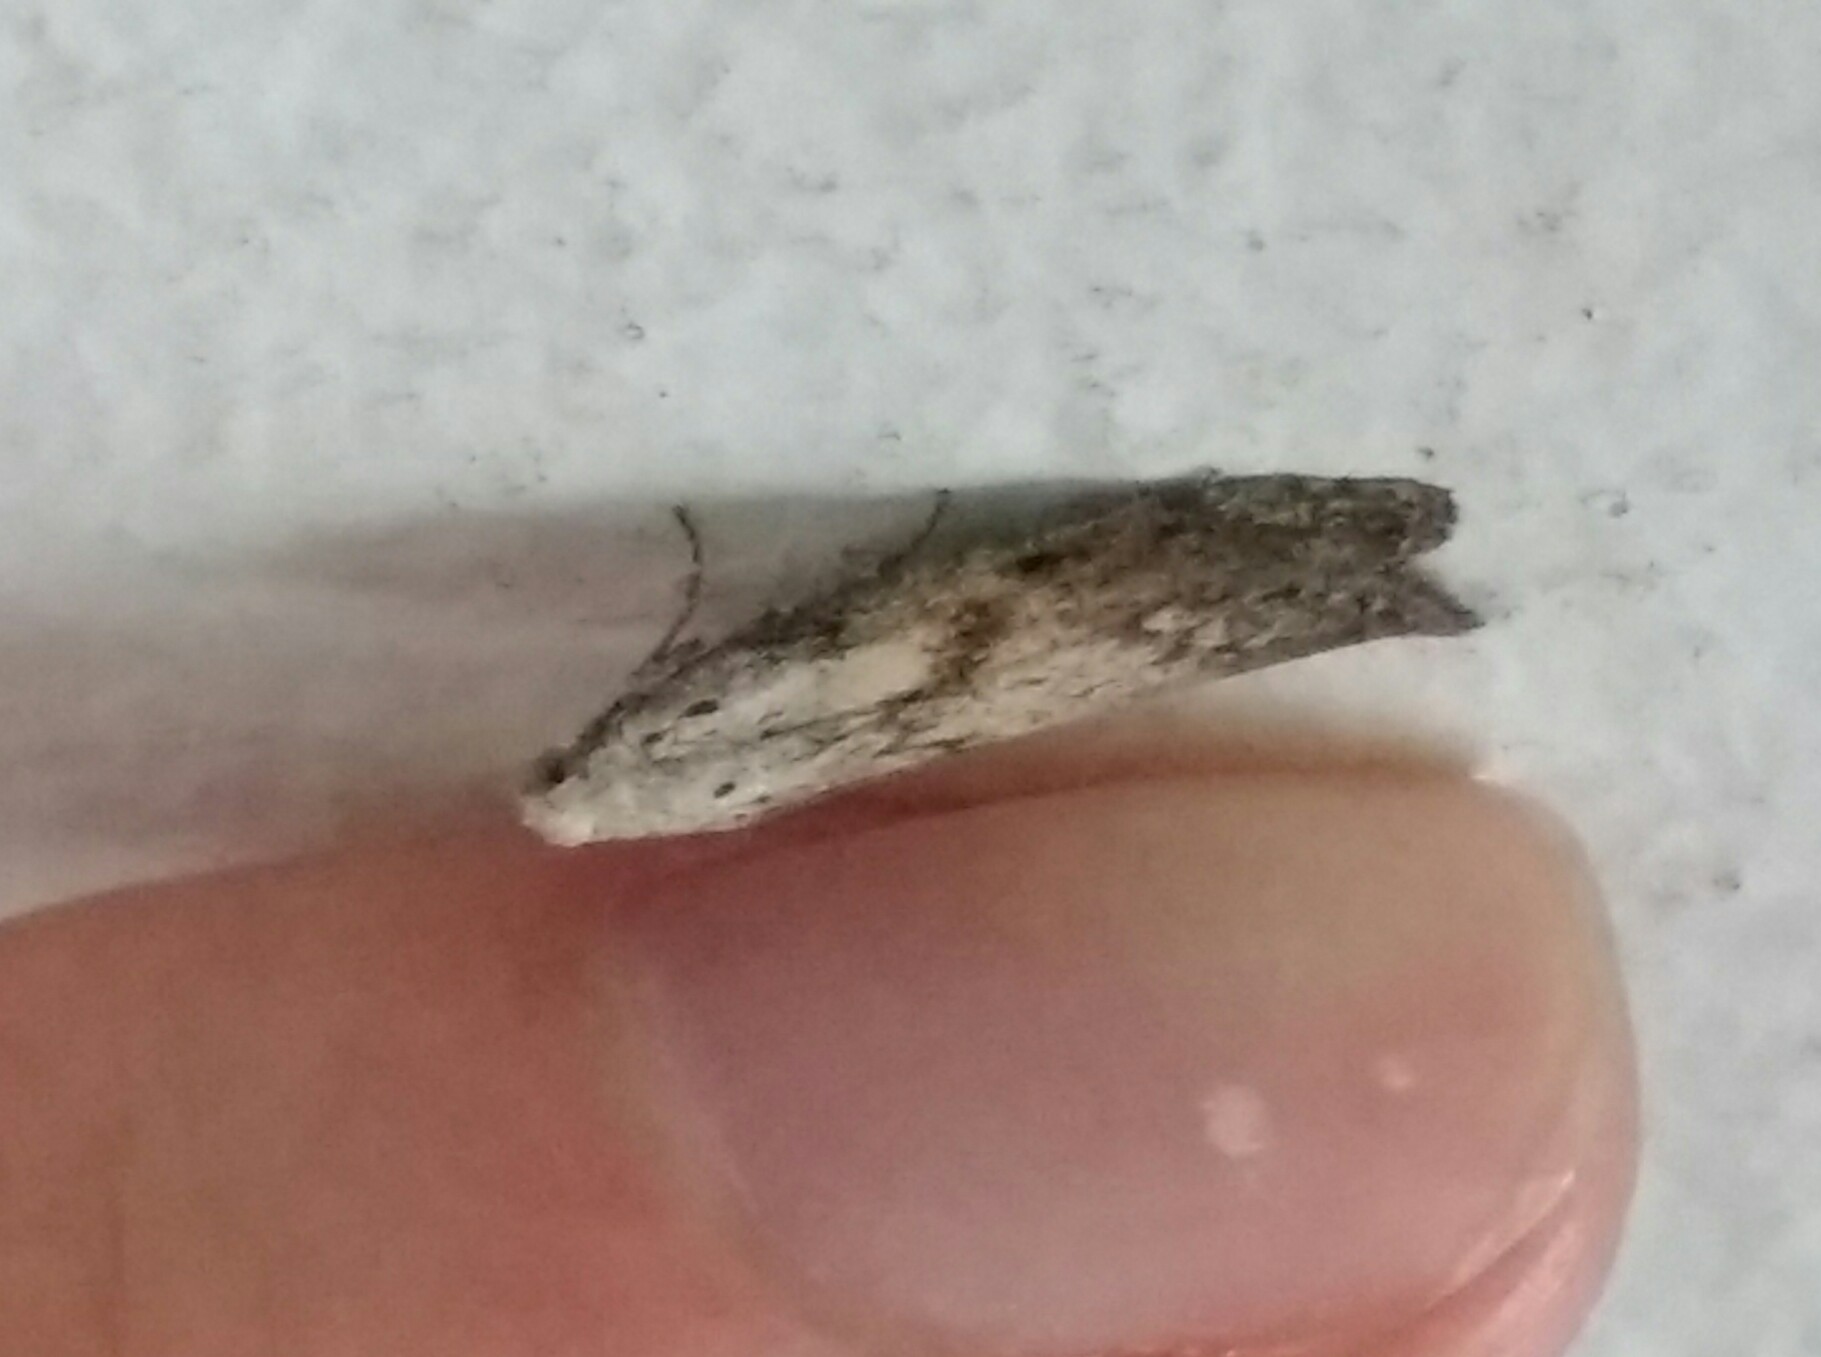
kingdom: Animalia
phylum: Arthropoda
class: Insecta
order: Lepidoptera
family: Pyralidae
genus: Aphomia
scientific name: Aphomia sociella
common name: Bee moth
